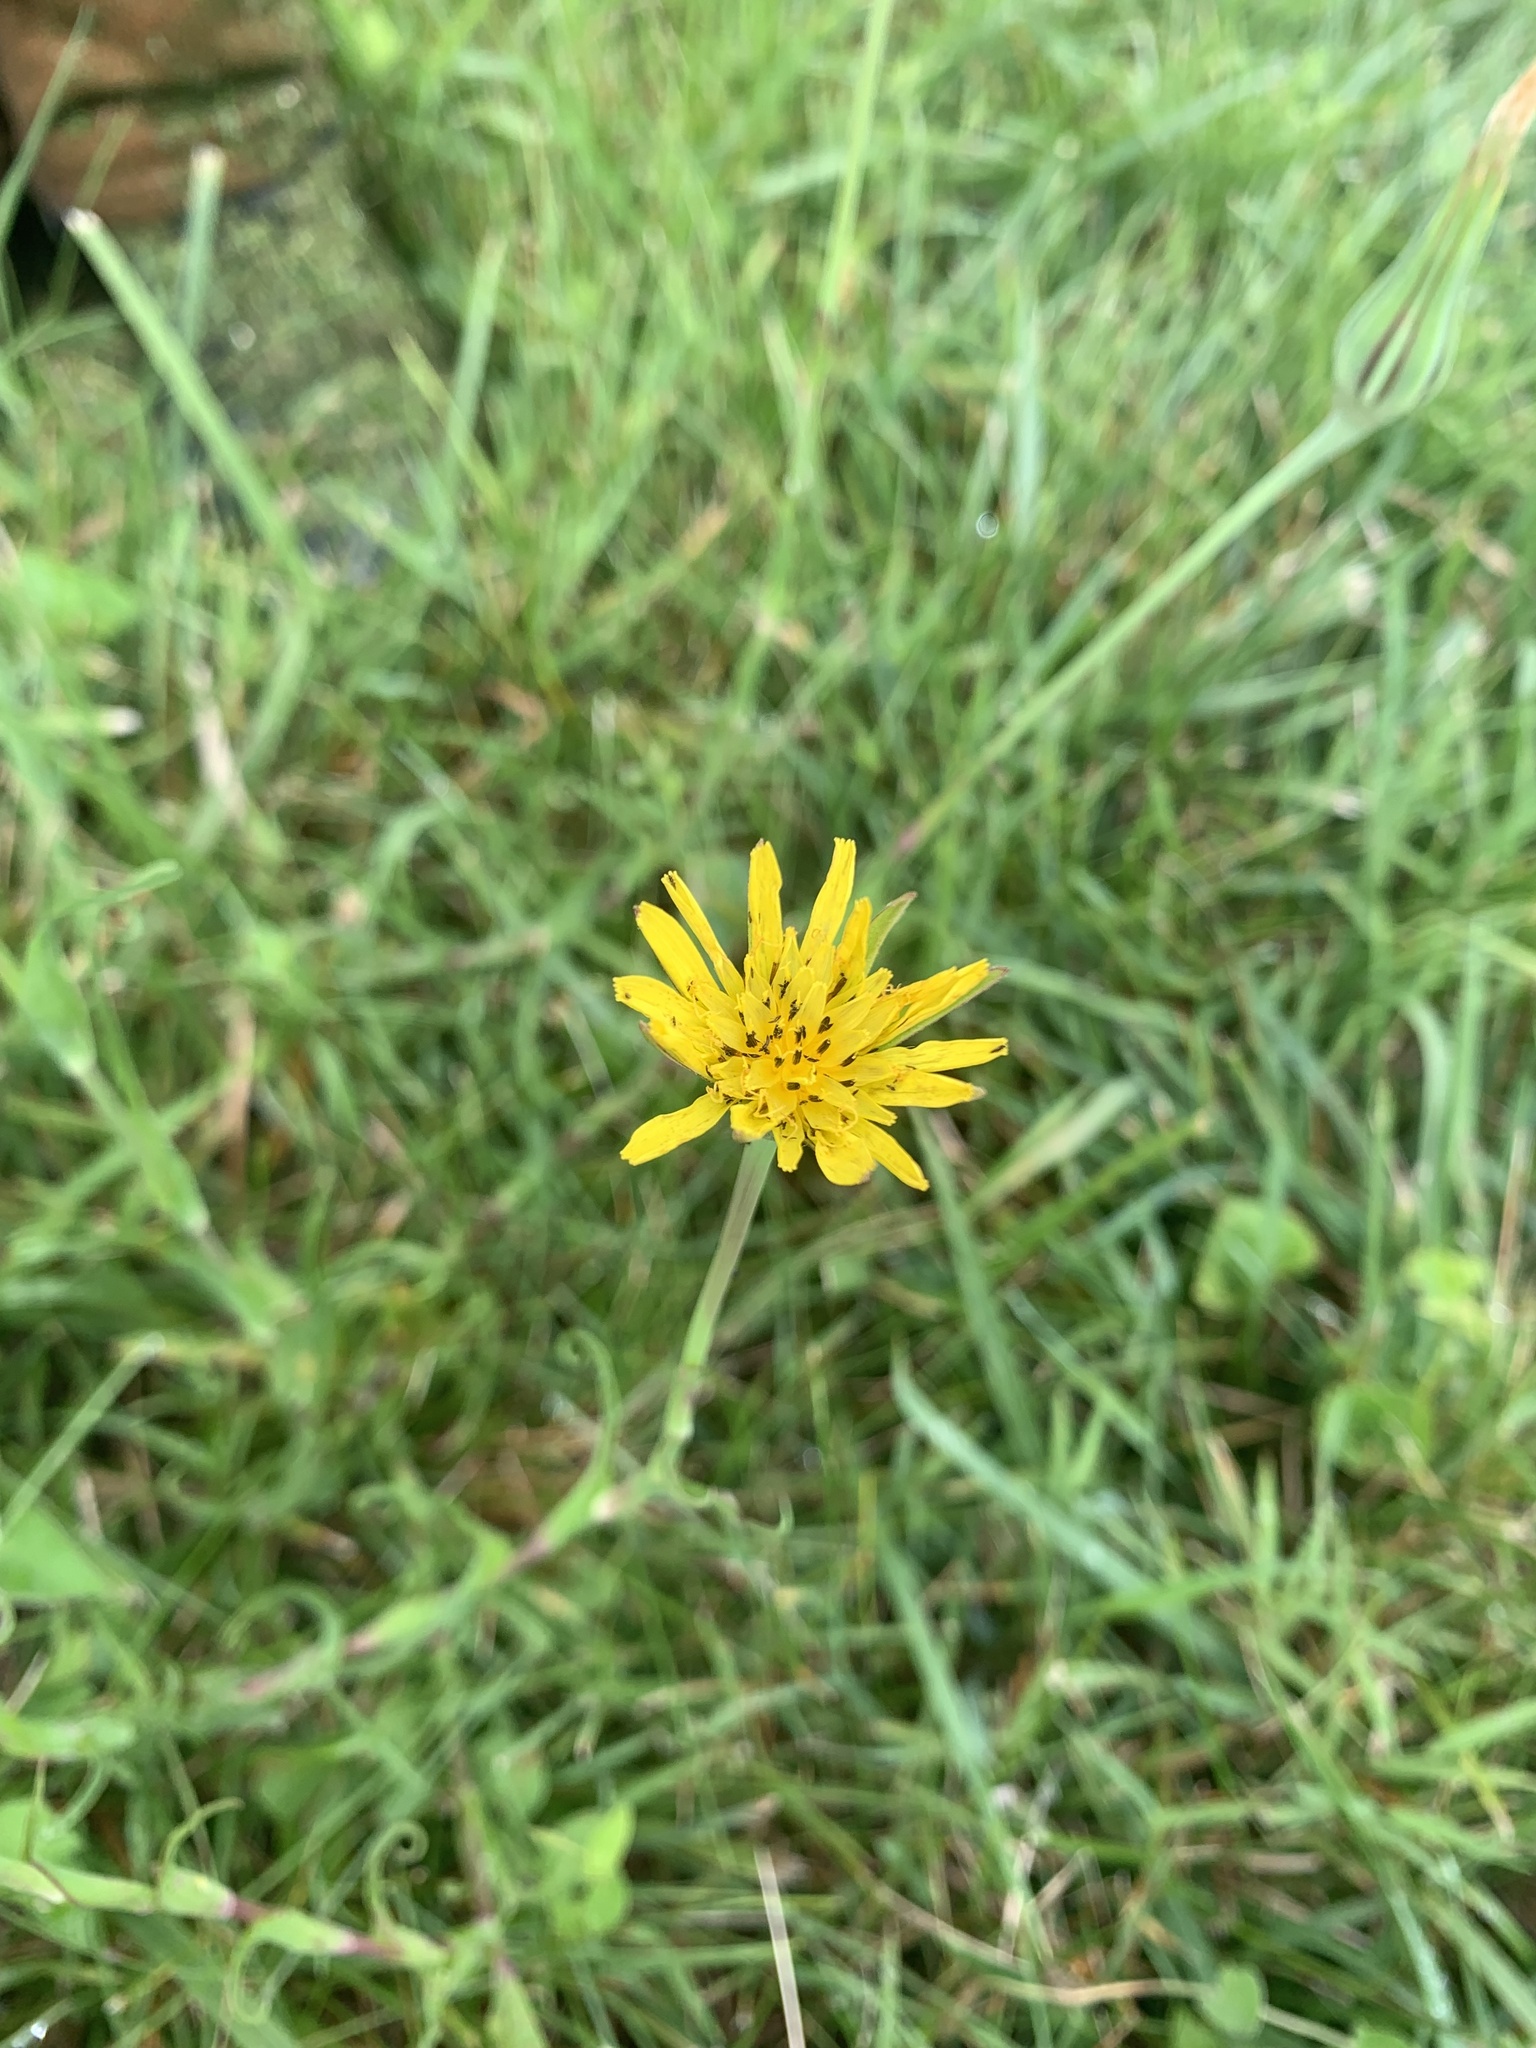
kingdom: Plantae
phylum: Tracheophyta
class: Magnoliopsida
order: Asterales
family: Asteraceae
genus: Tragopogon
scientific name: Tragopogon pratensis
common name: Goat's-beard
